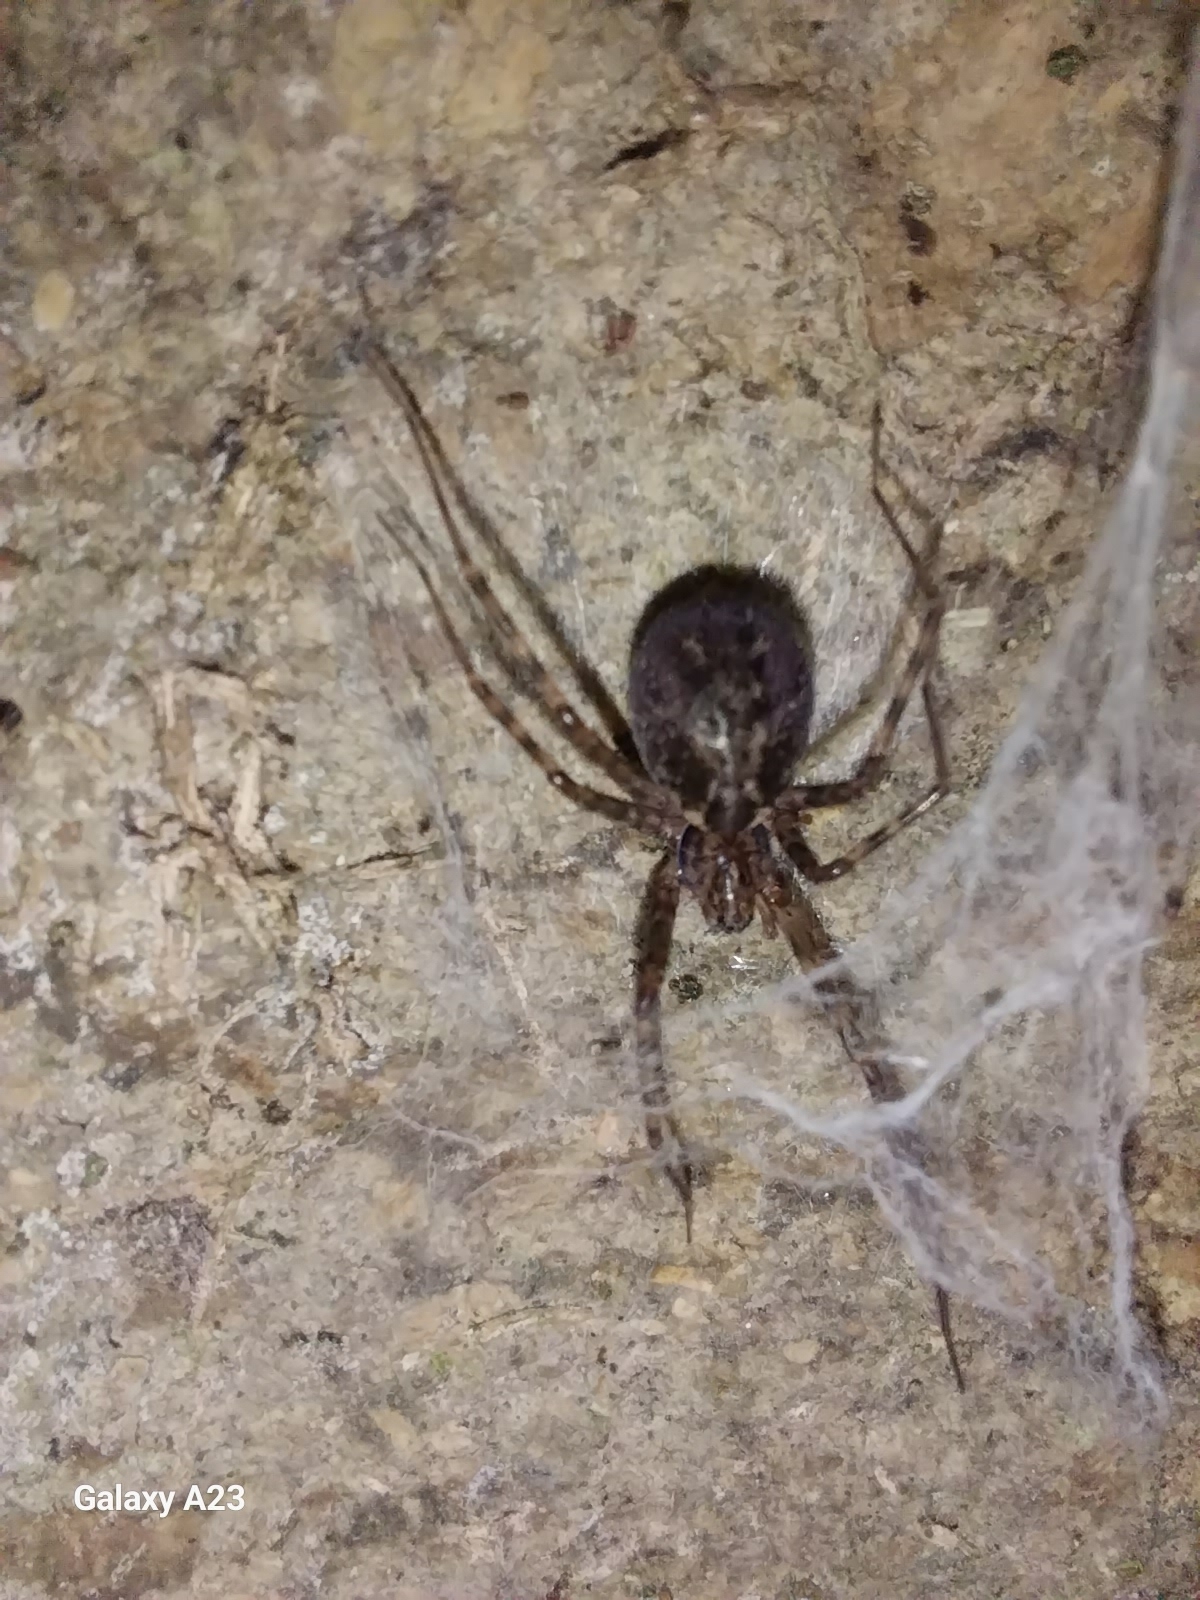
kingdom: Animalia
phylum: Arthropoda
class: Arachnida
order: Araneae
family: Stiphidiidae
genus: Stiphidion
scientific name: Stiphidion facetum
